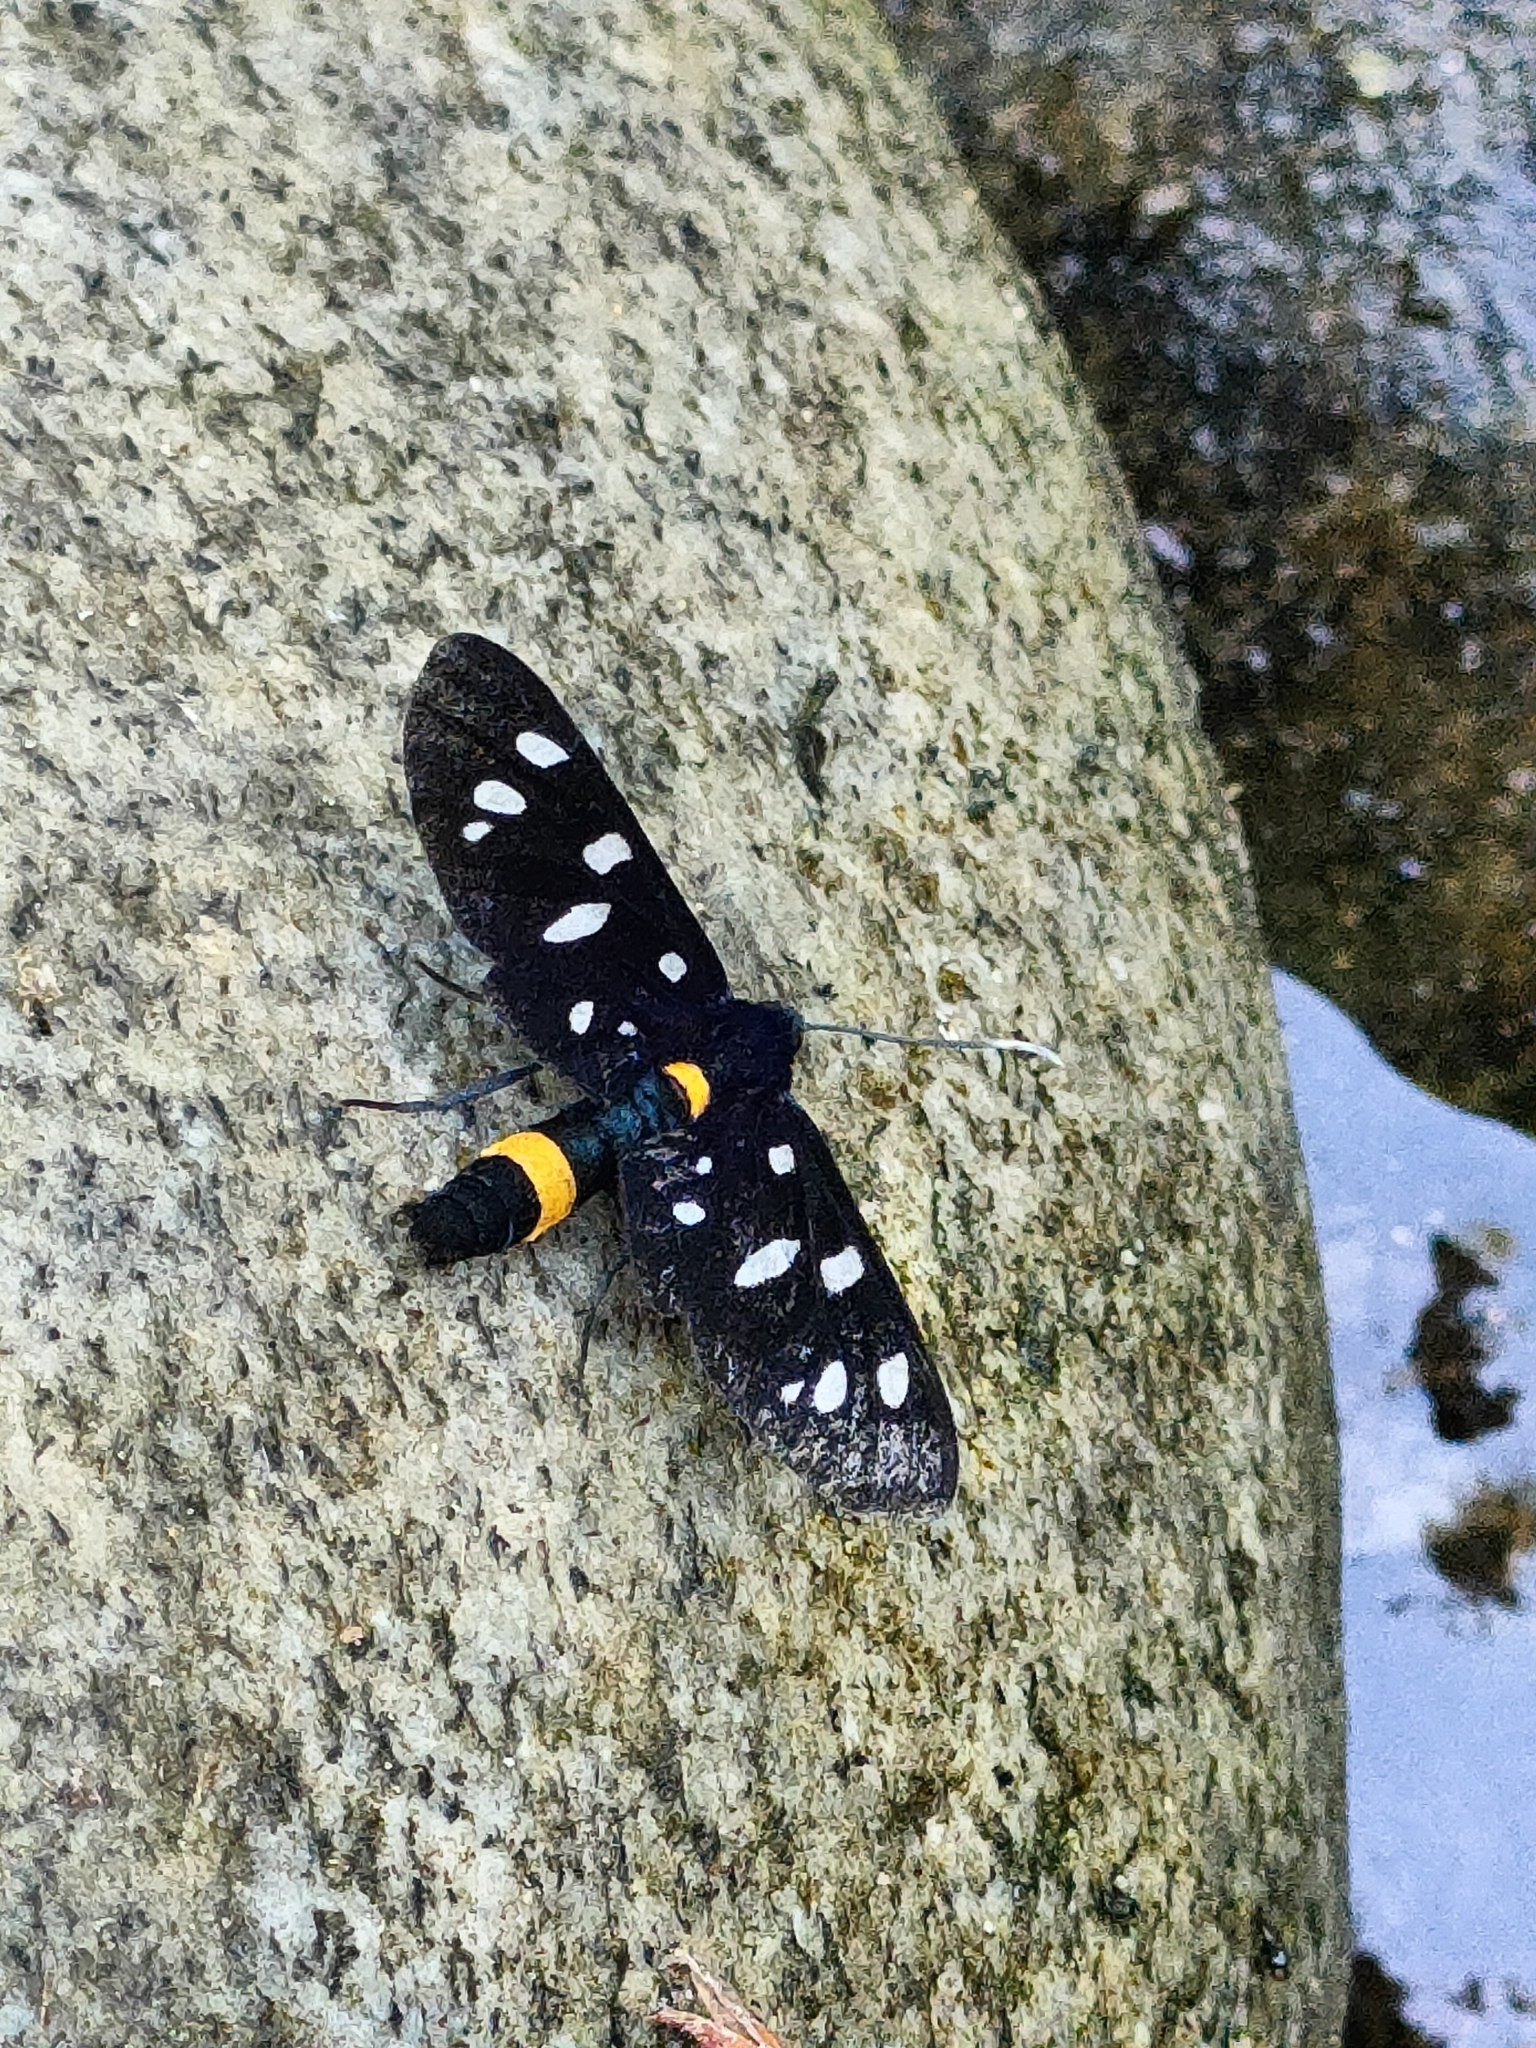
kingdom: Animalia
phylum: Arthropoda
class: Insecta
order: Lepidoptera
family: Erebidae
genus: Amata
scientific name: Amata phegea
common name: Nine-spotted
